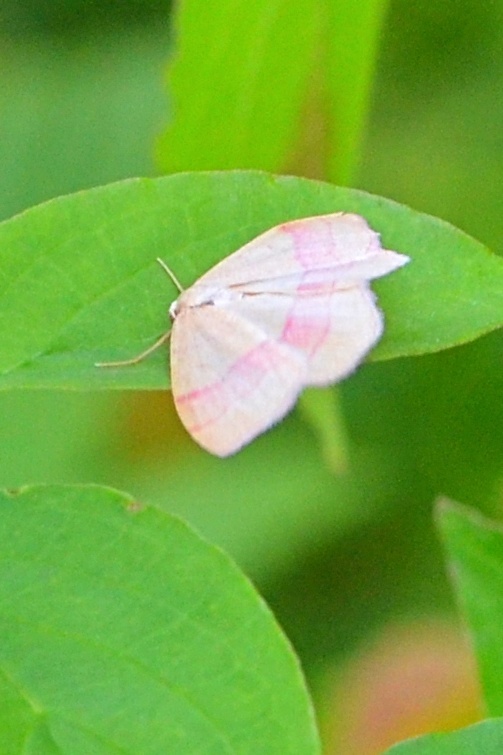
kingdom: Animalia
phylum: Arthropoda
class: Insecta
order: Lepidoptera
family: Geometridae
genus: Rhodostrophia
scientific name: Rhodostrophia vibicaria
